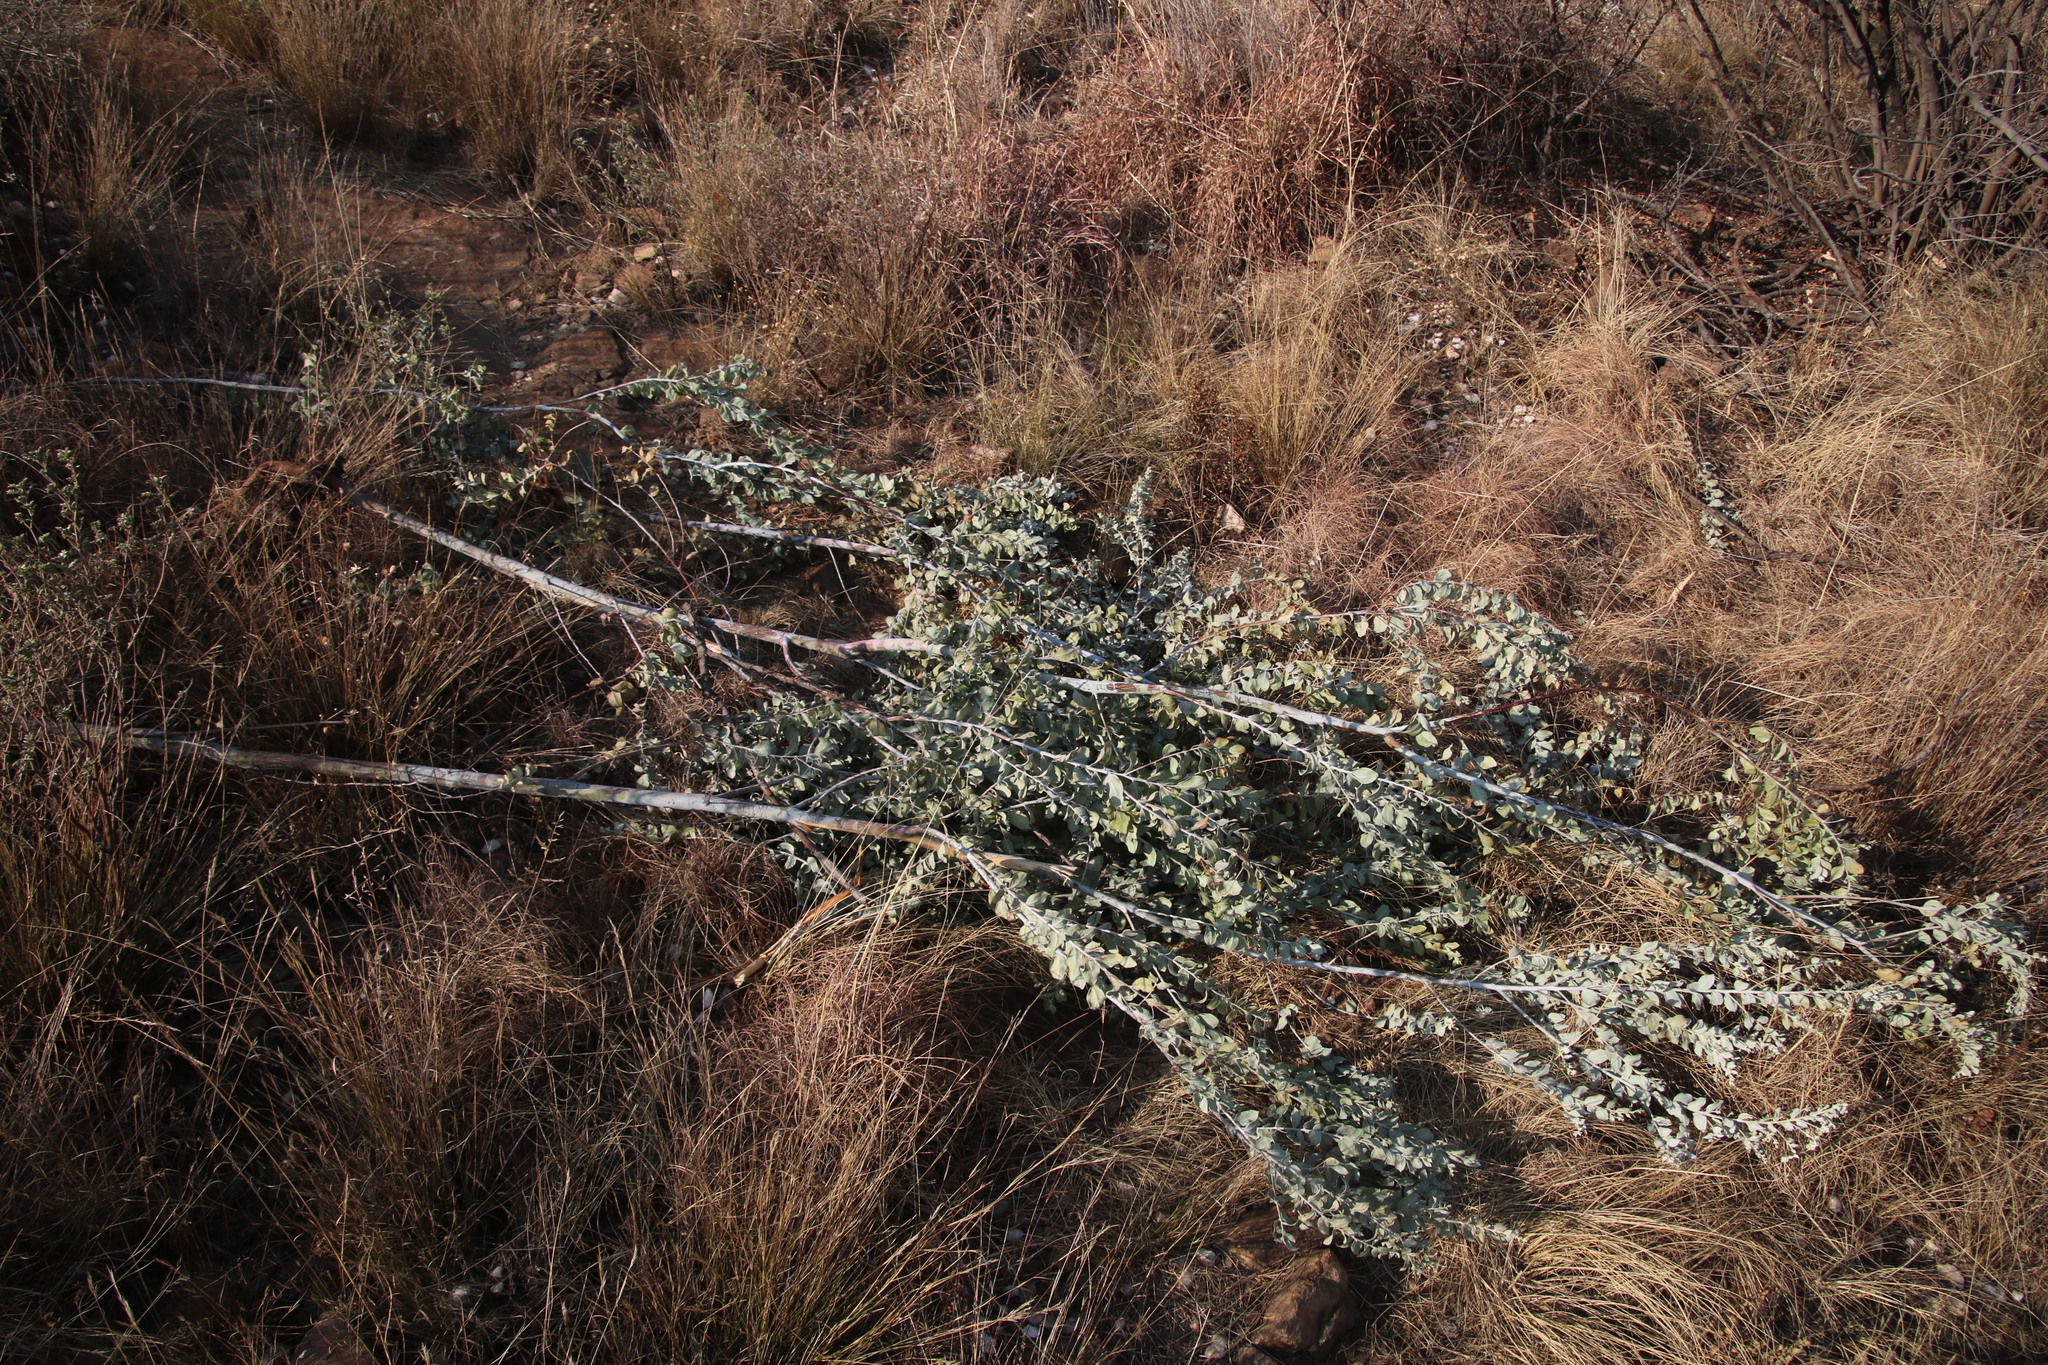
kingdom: Plantae
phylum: Tracheophyta
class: Magnoliopsida
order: Fabales
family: Fabaceae
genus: Acacia
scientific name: Acacia podalyriifolia
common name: Pearl wattle
